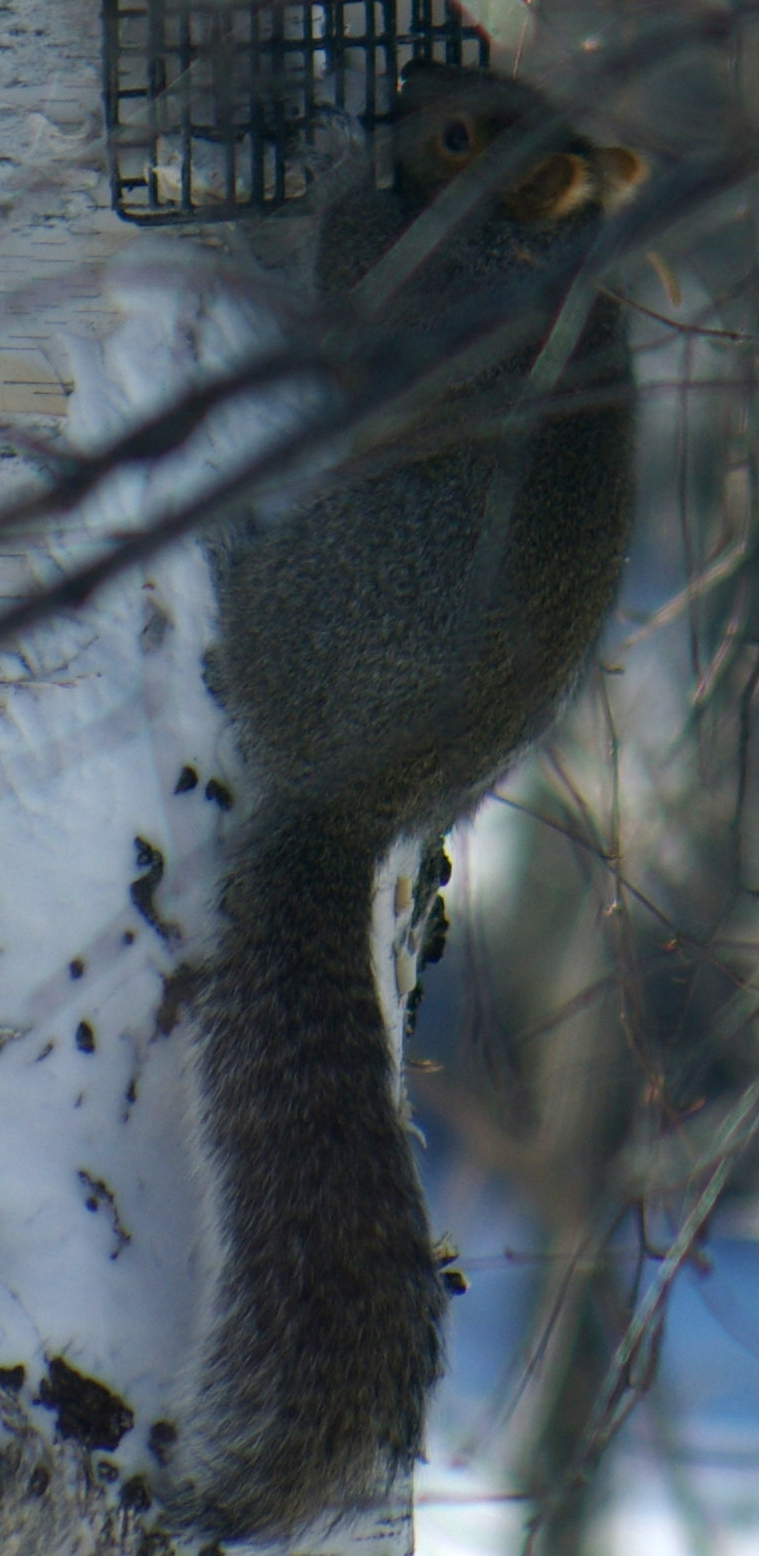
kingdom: Animalia
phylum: Chordata
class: Mammalia
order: Rodentia
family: Sciuridae
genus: Sciurus
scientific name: Sciurus carolinensis
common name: Eastern gray squirrel
